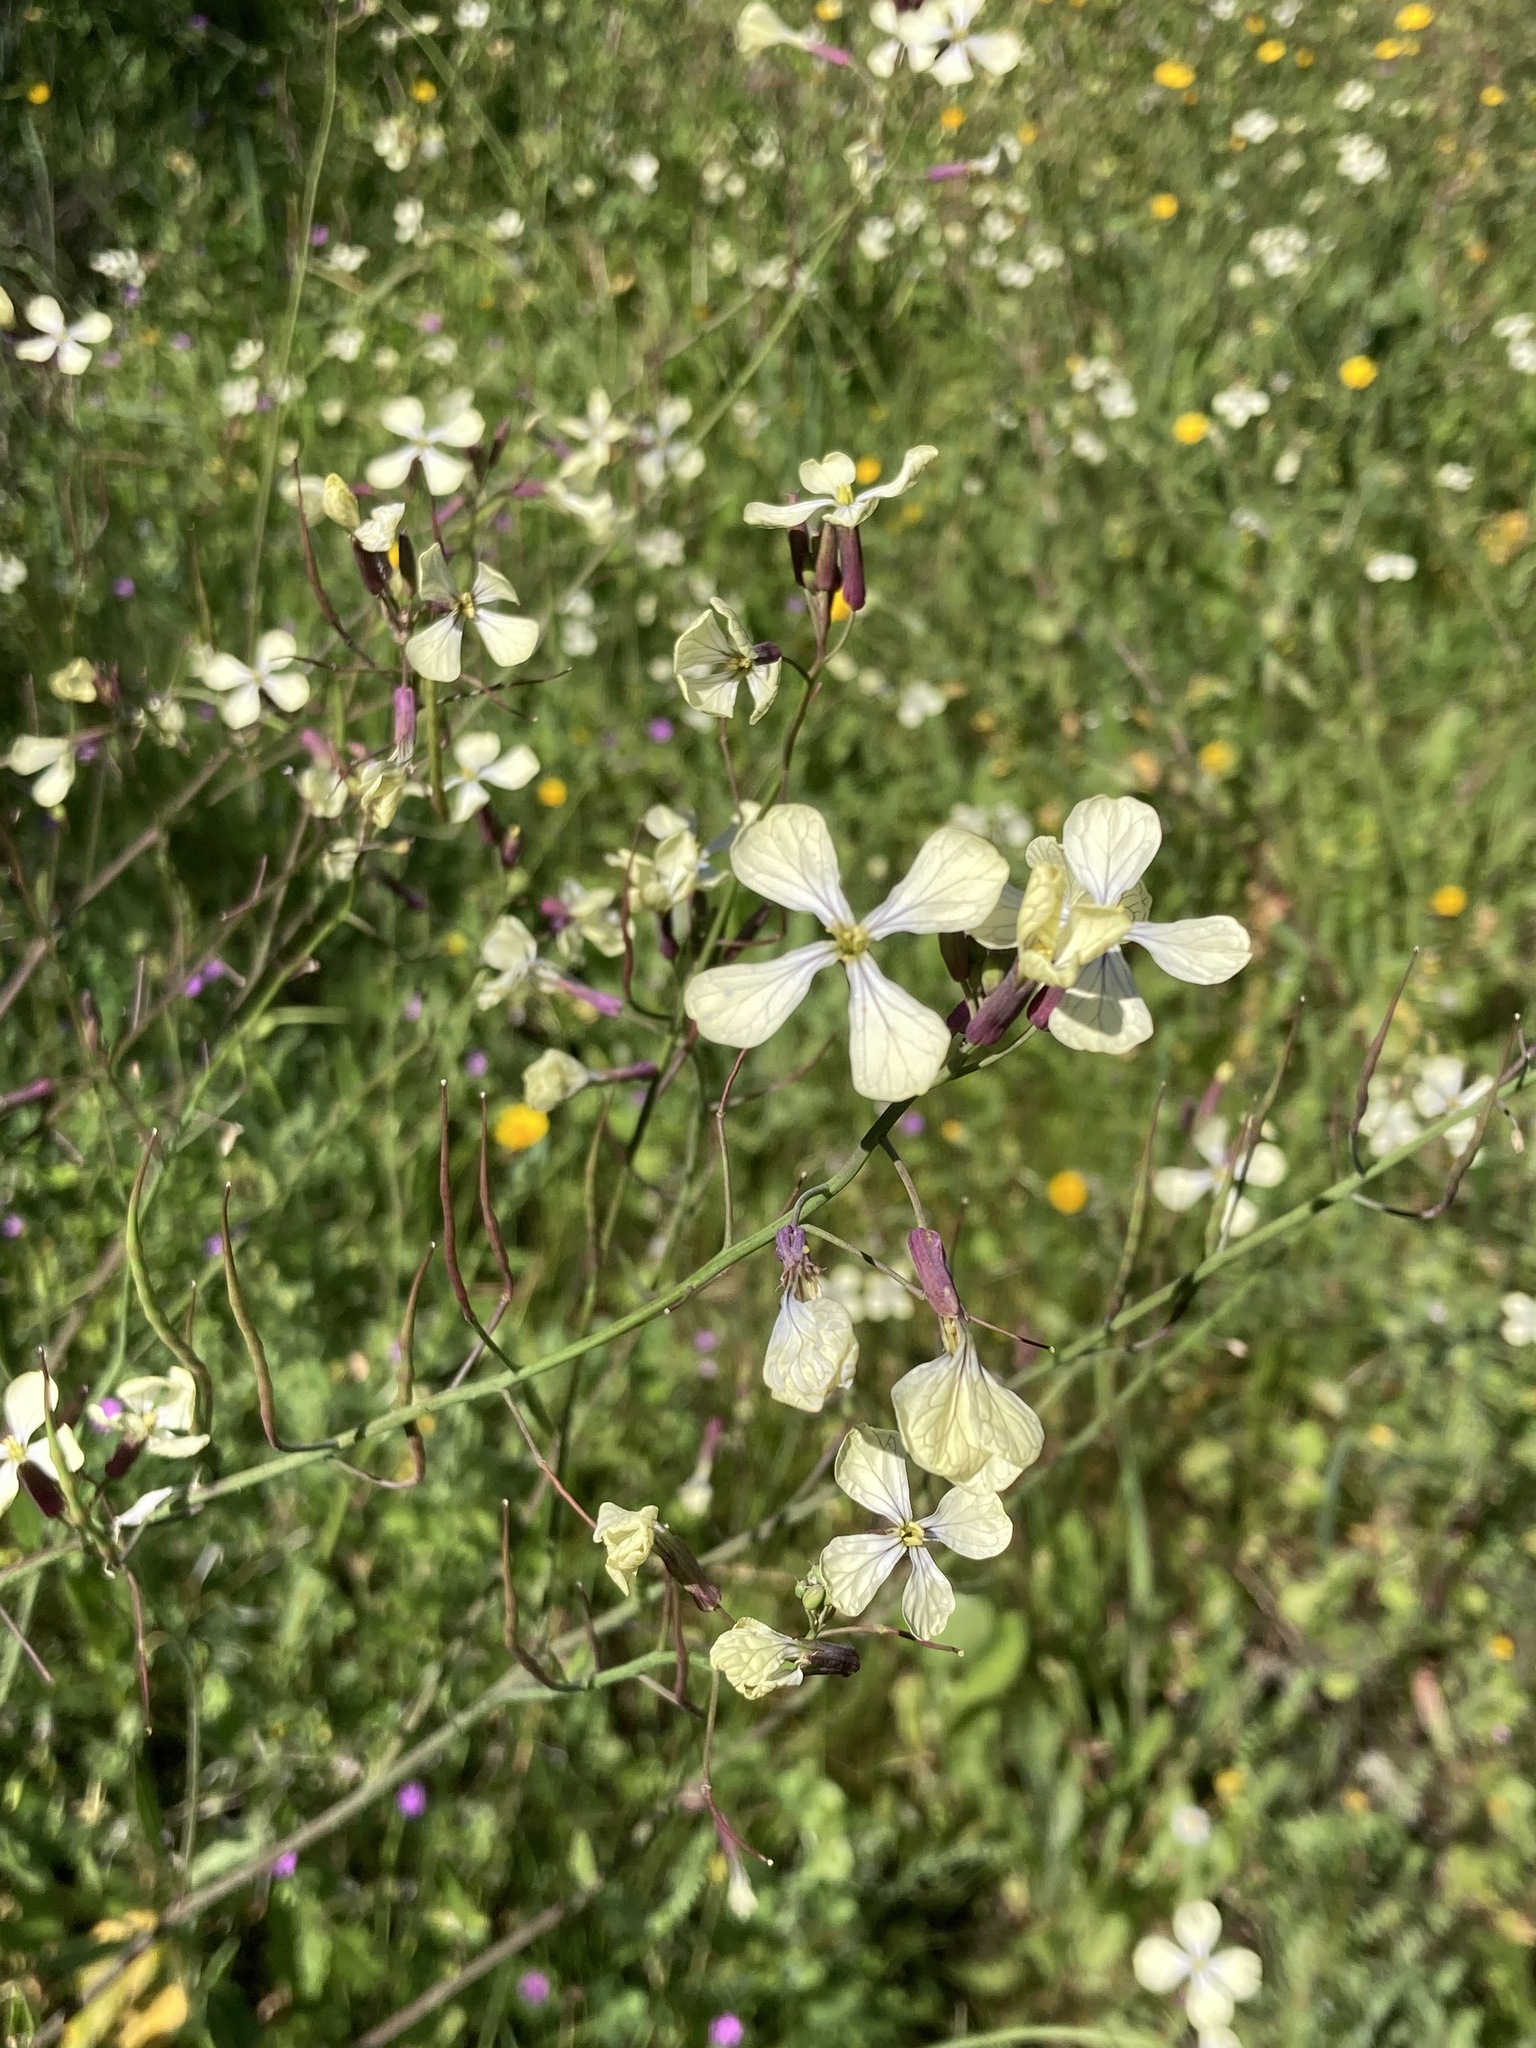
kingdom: Plantae
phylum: Tracheophyta
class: Magnoliopsida
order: Brassicales
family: Brassicaceae
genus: Raphanus
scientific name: Raphanus raphanistrum
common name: Wild radish
